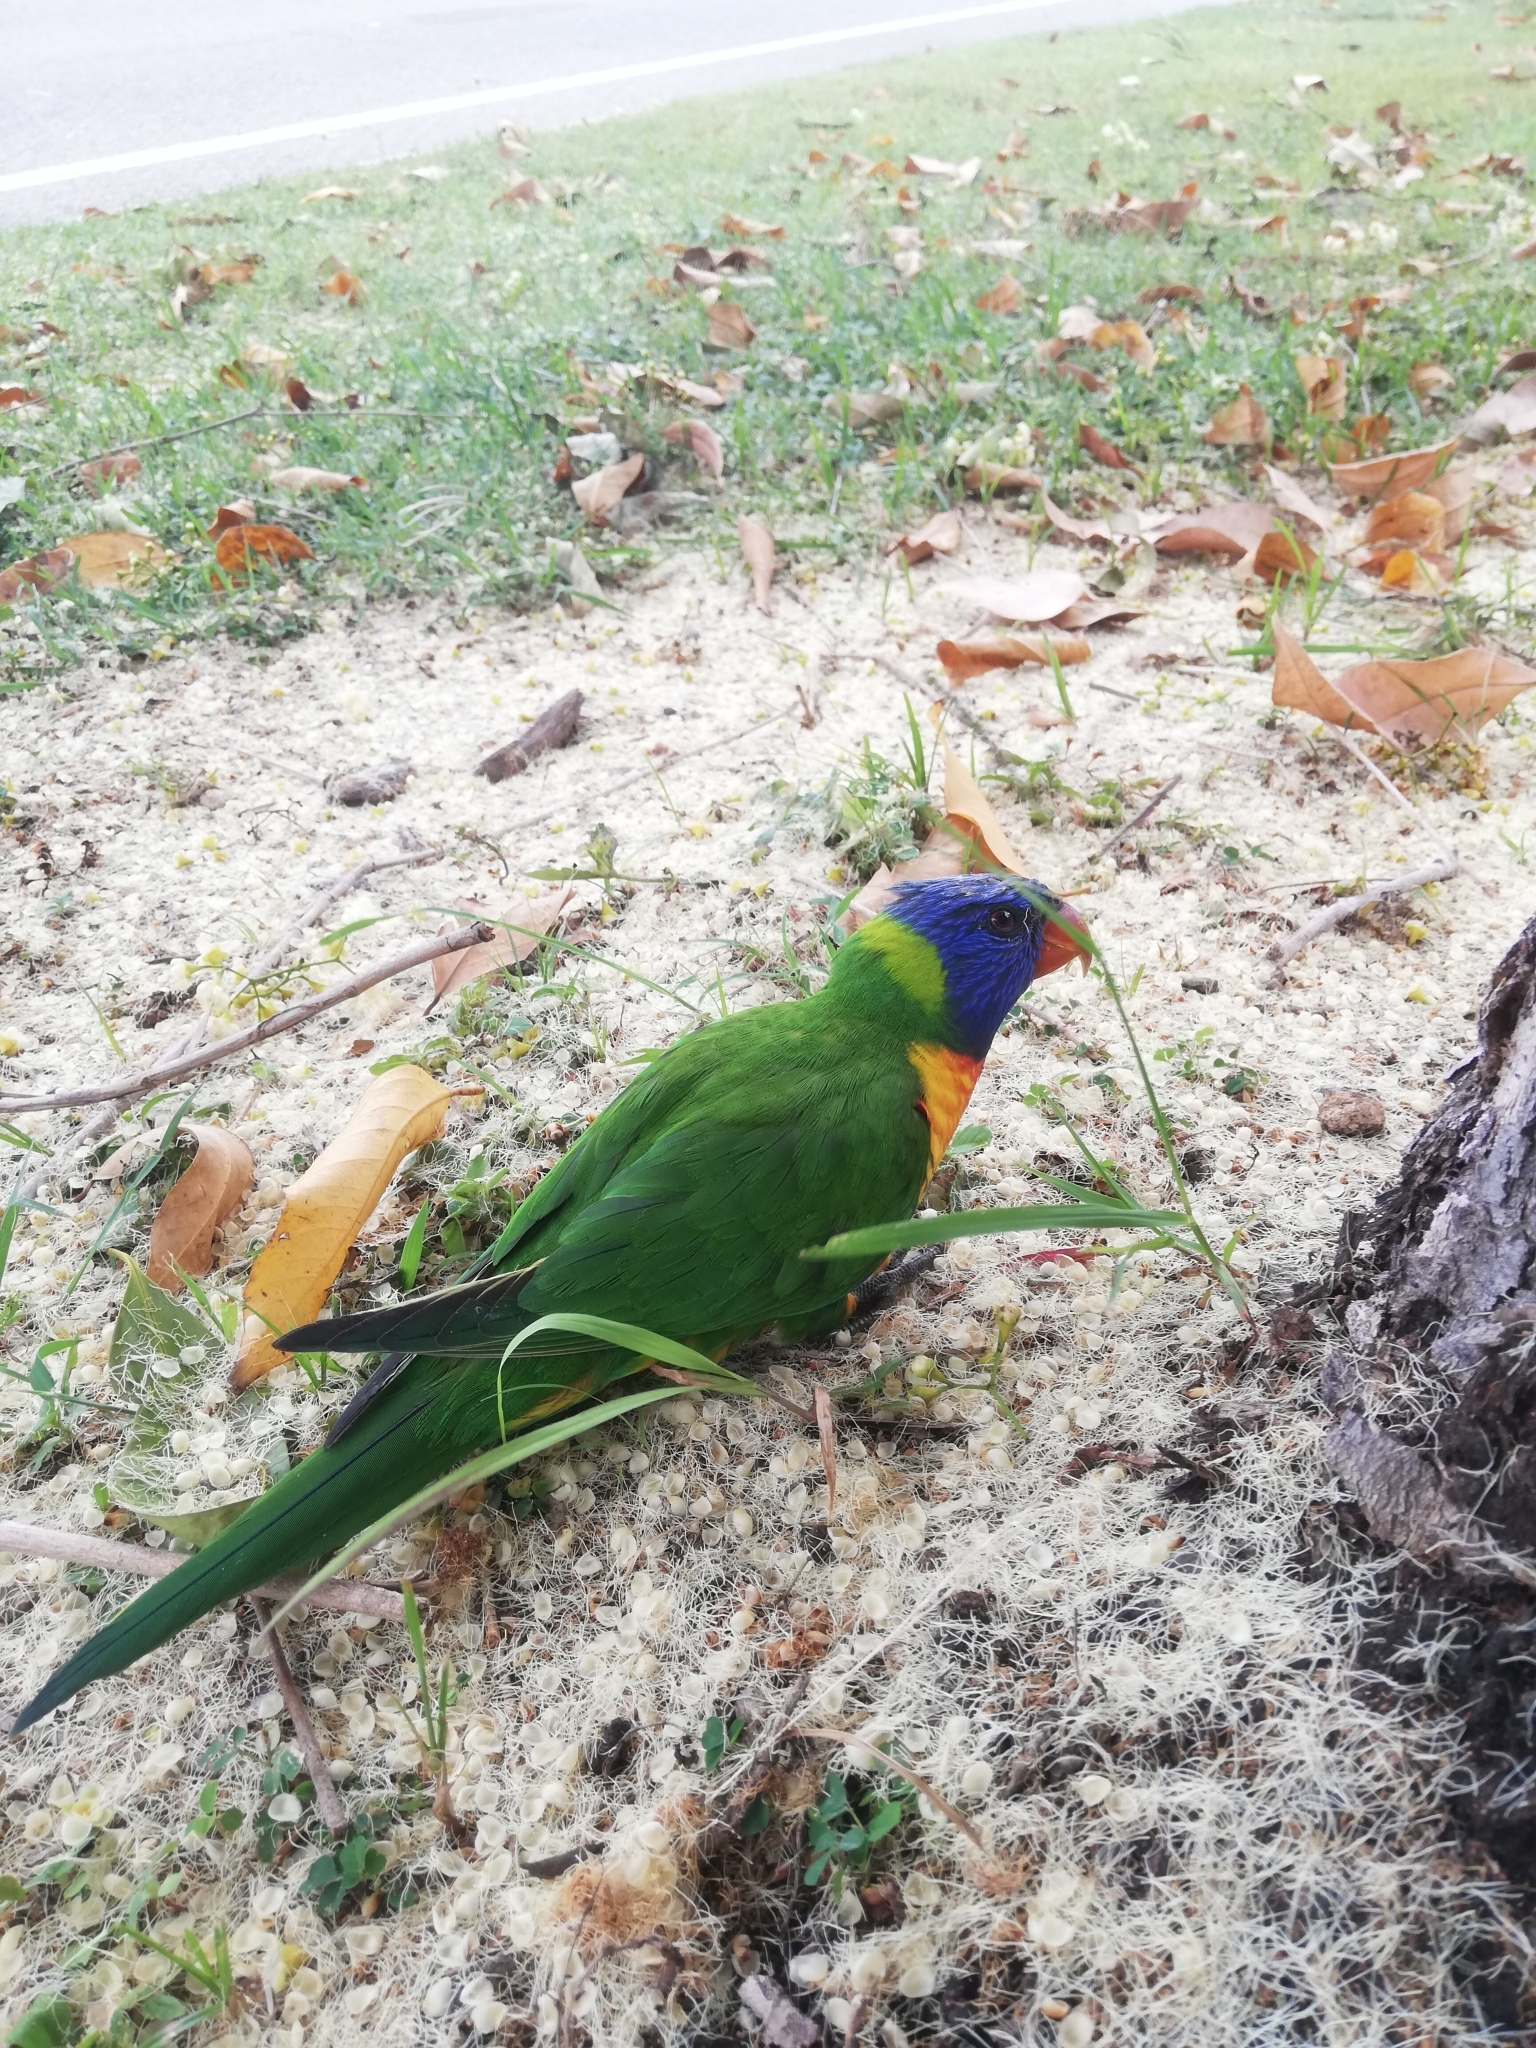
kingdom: Animalia
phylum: Chordata
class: Aves
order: Psittaciformes
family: Psittacidae
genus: Trichoglossus
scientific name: Trichoglossus haematodus
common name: Coconut lorikeet
